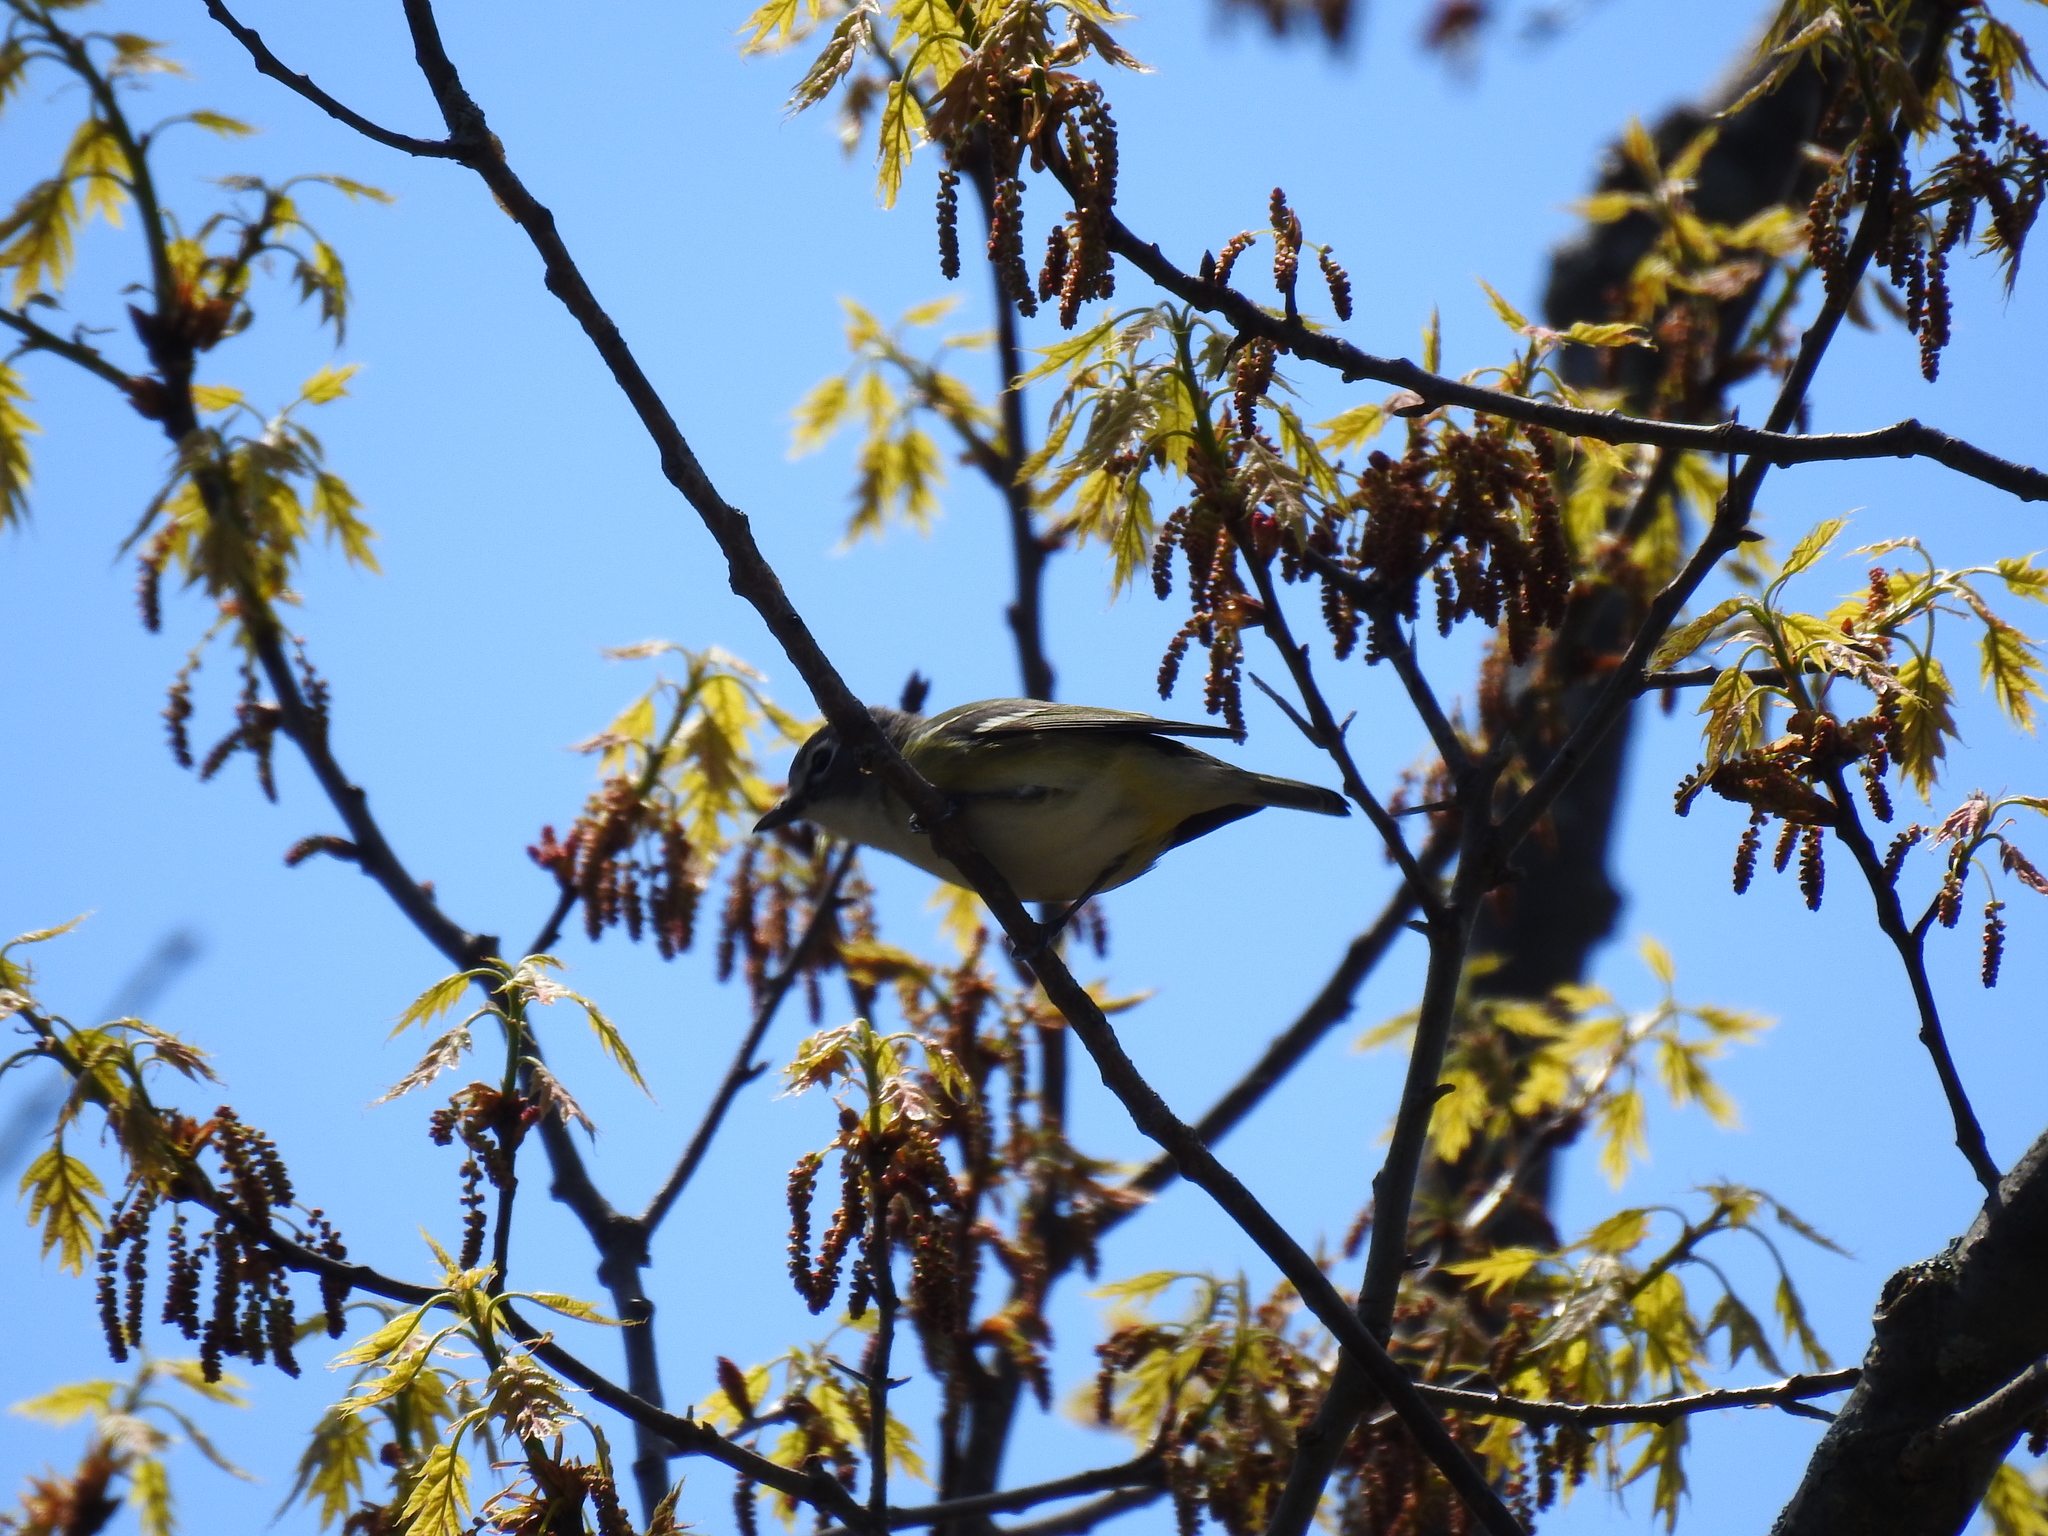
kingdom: Animalia
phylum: Chordata
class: Aves
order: Passeriformes
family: Vireonidae
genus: Vireo
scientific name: Vireo solitarius
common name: Blue-headed vireo
